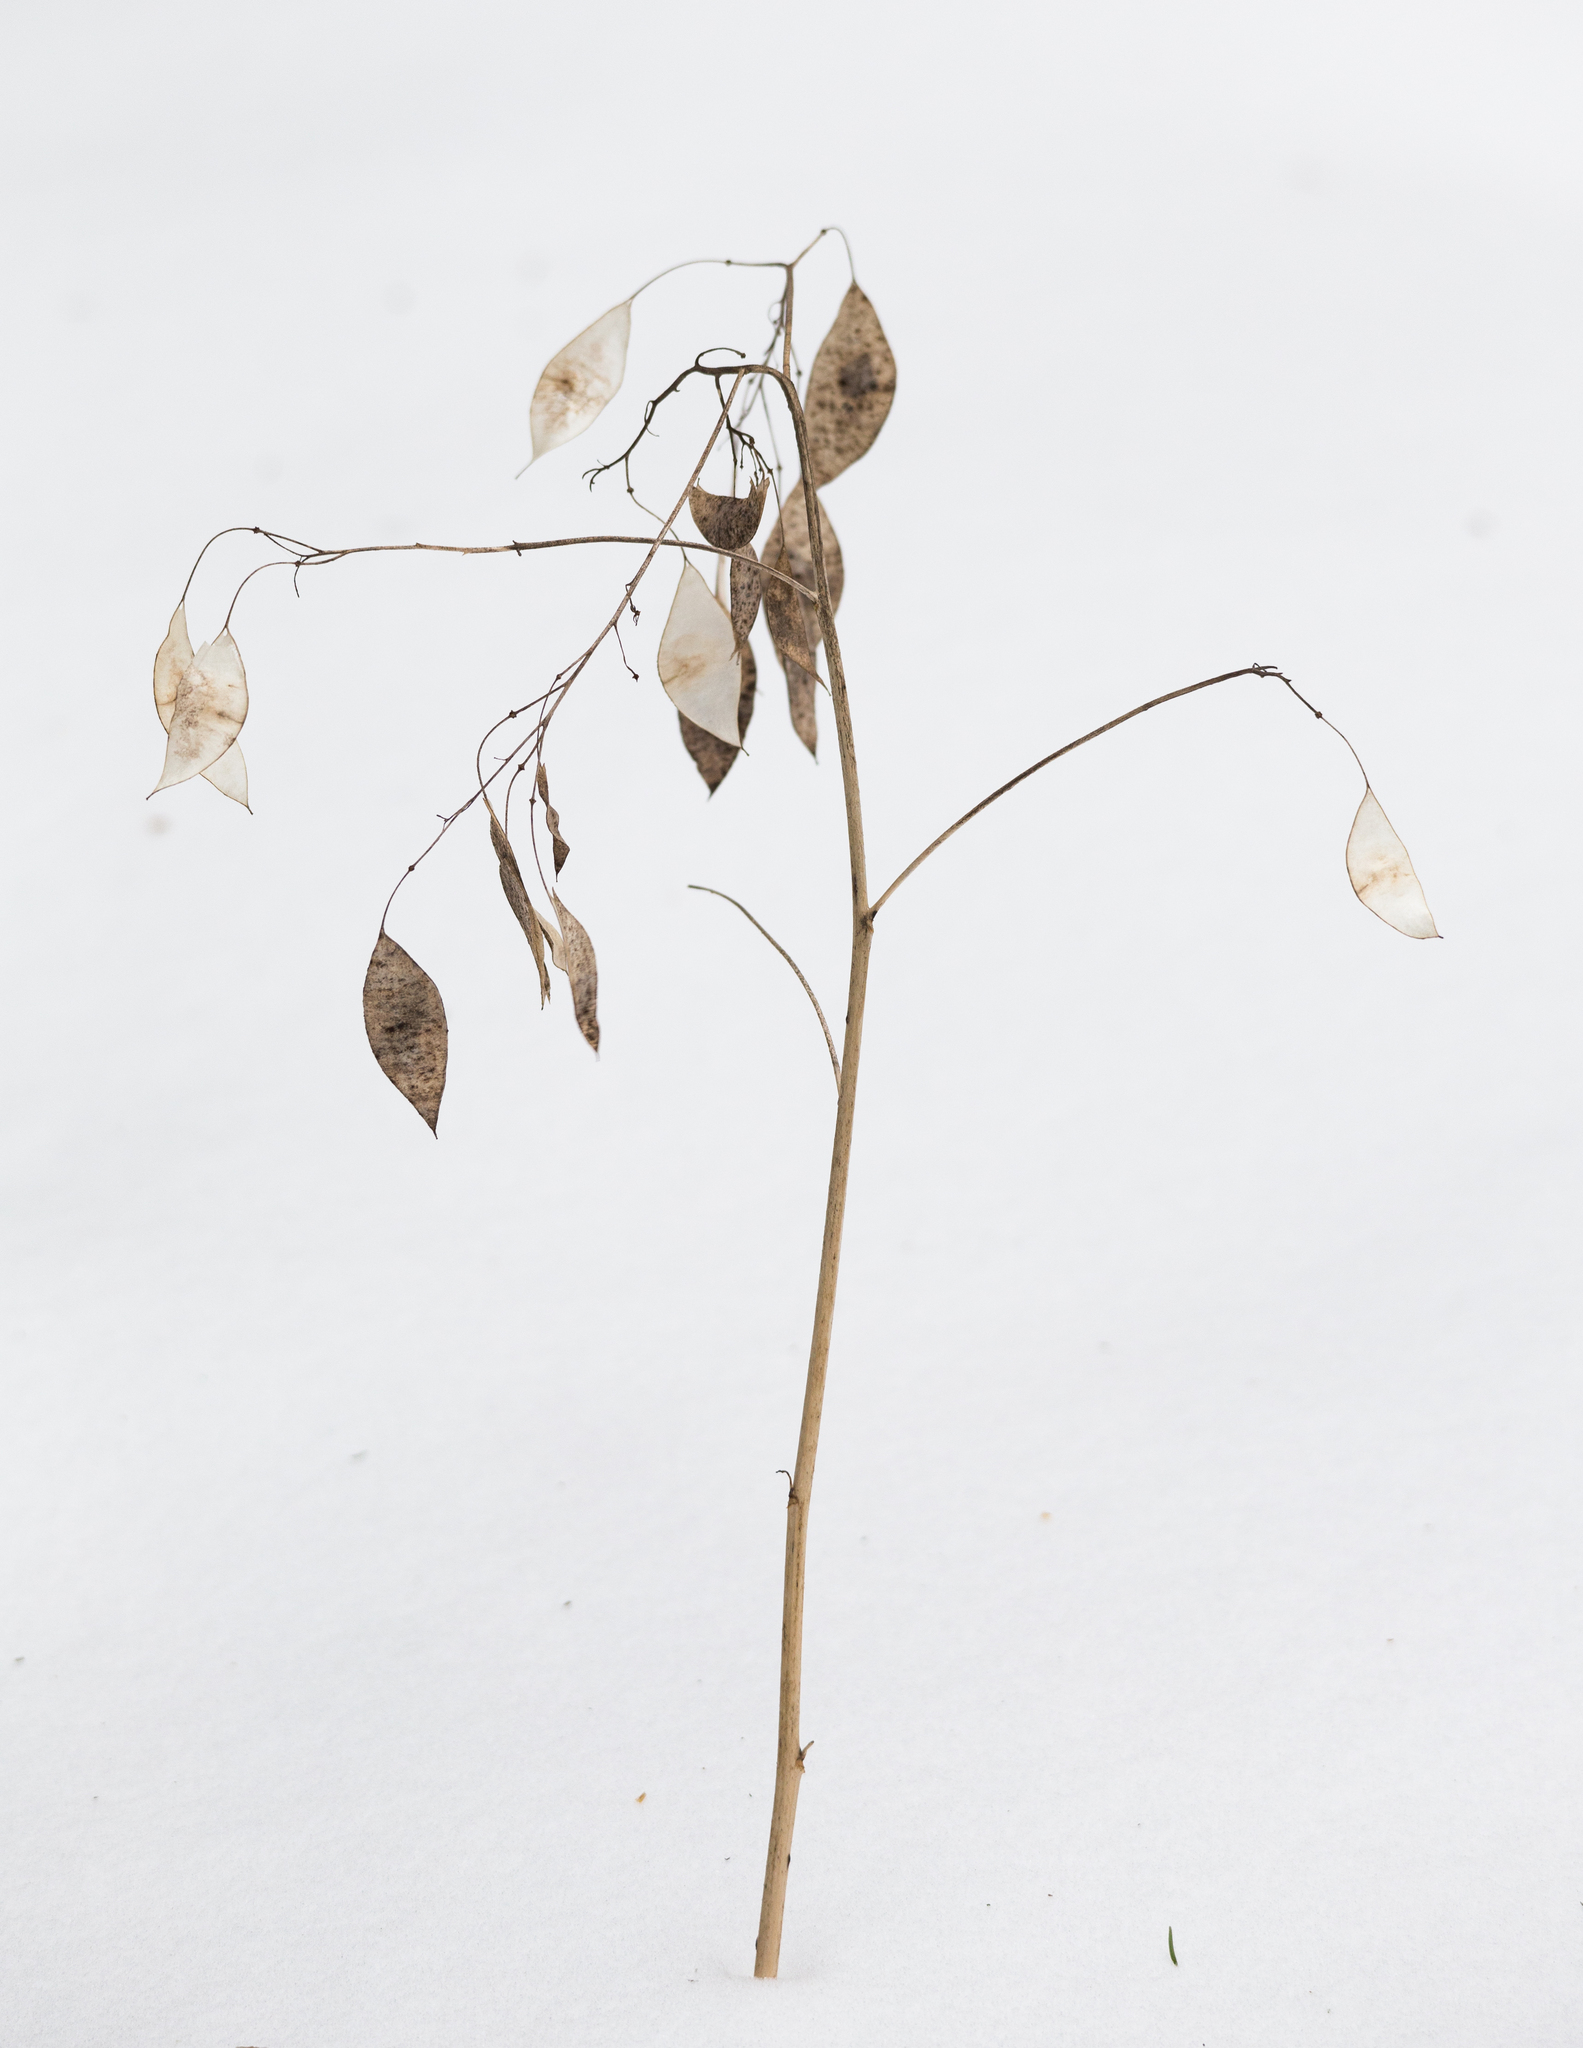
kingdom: Plantae
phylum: Tracheophyta
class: Magnoliopsida
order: Brassicales
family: Brassicaceae
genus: Lunaria
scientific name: Lunaria rediviva
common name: Perennial honesty
